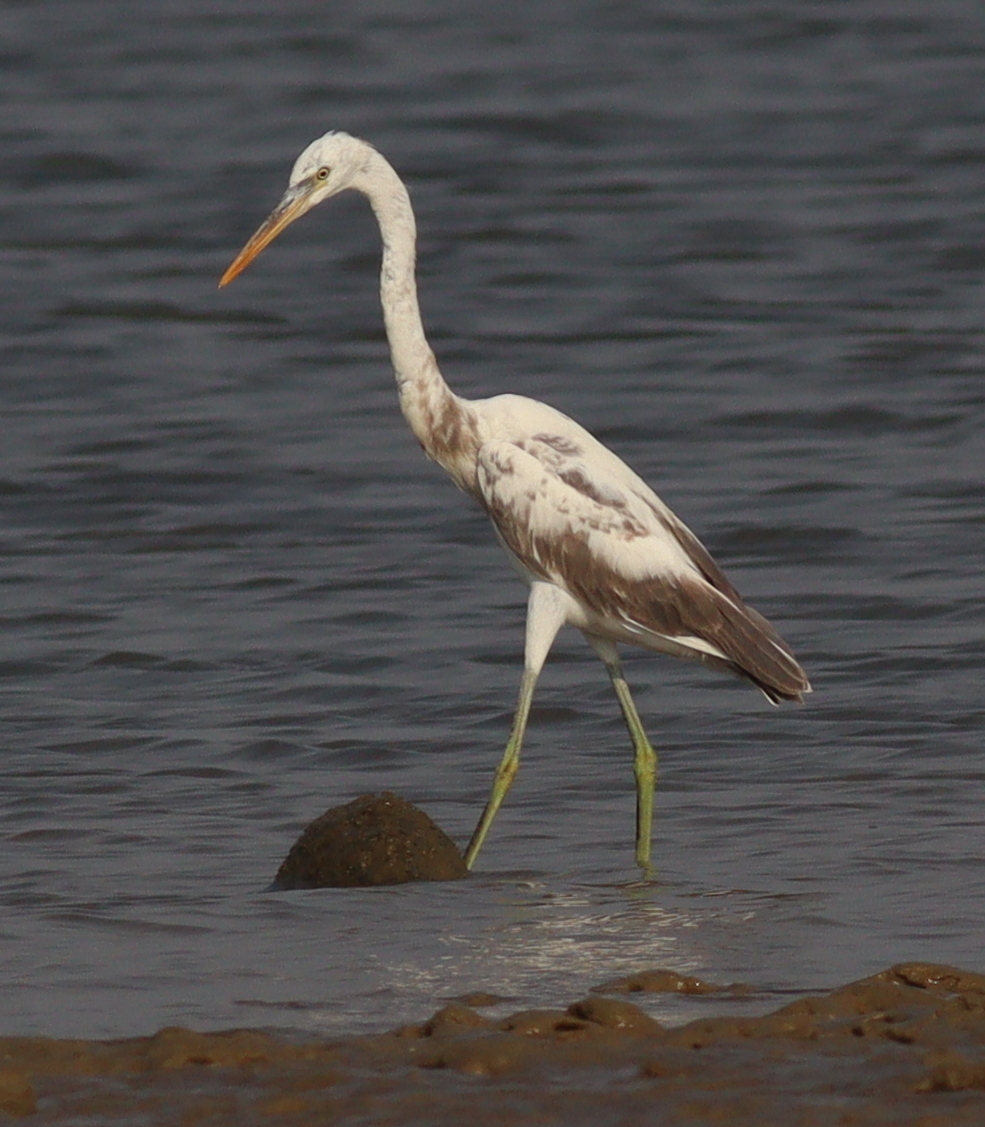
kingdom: Animalia
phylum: Chordata
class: Aves
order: Pelecaniformes
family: Ardeidae
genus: Egretta
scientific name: Egretta gularis
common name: Western reef-heron
